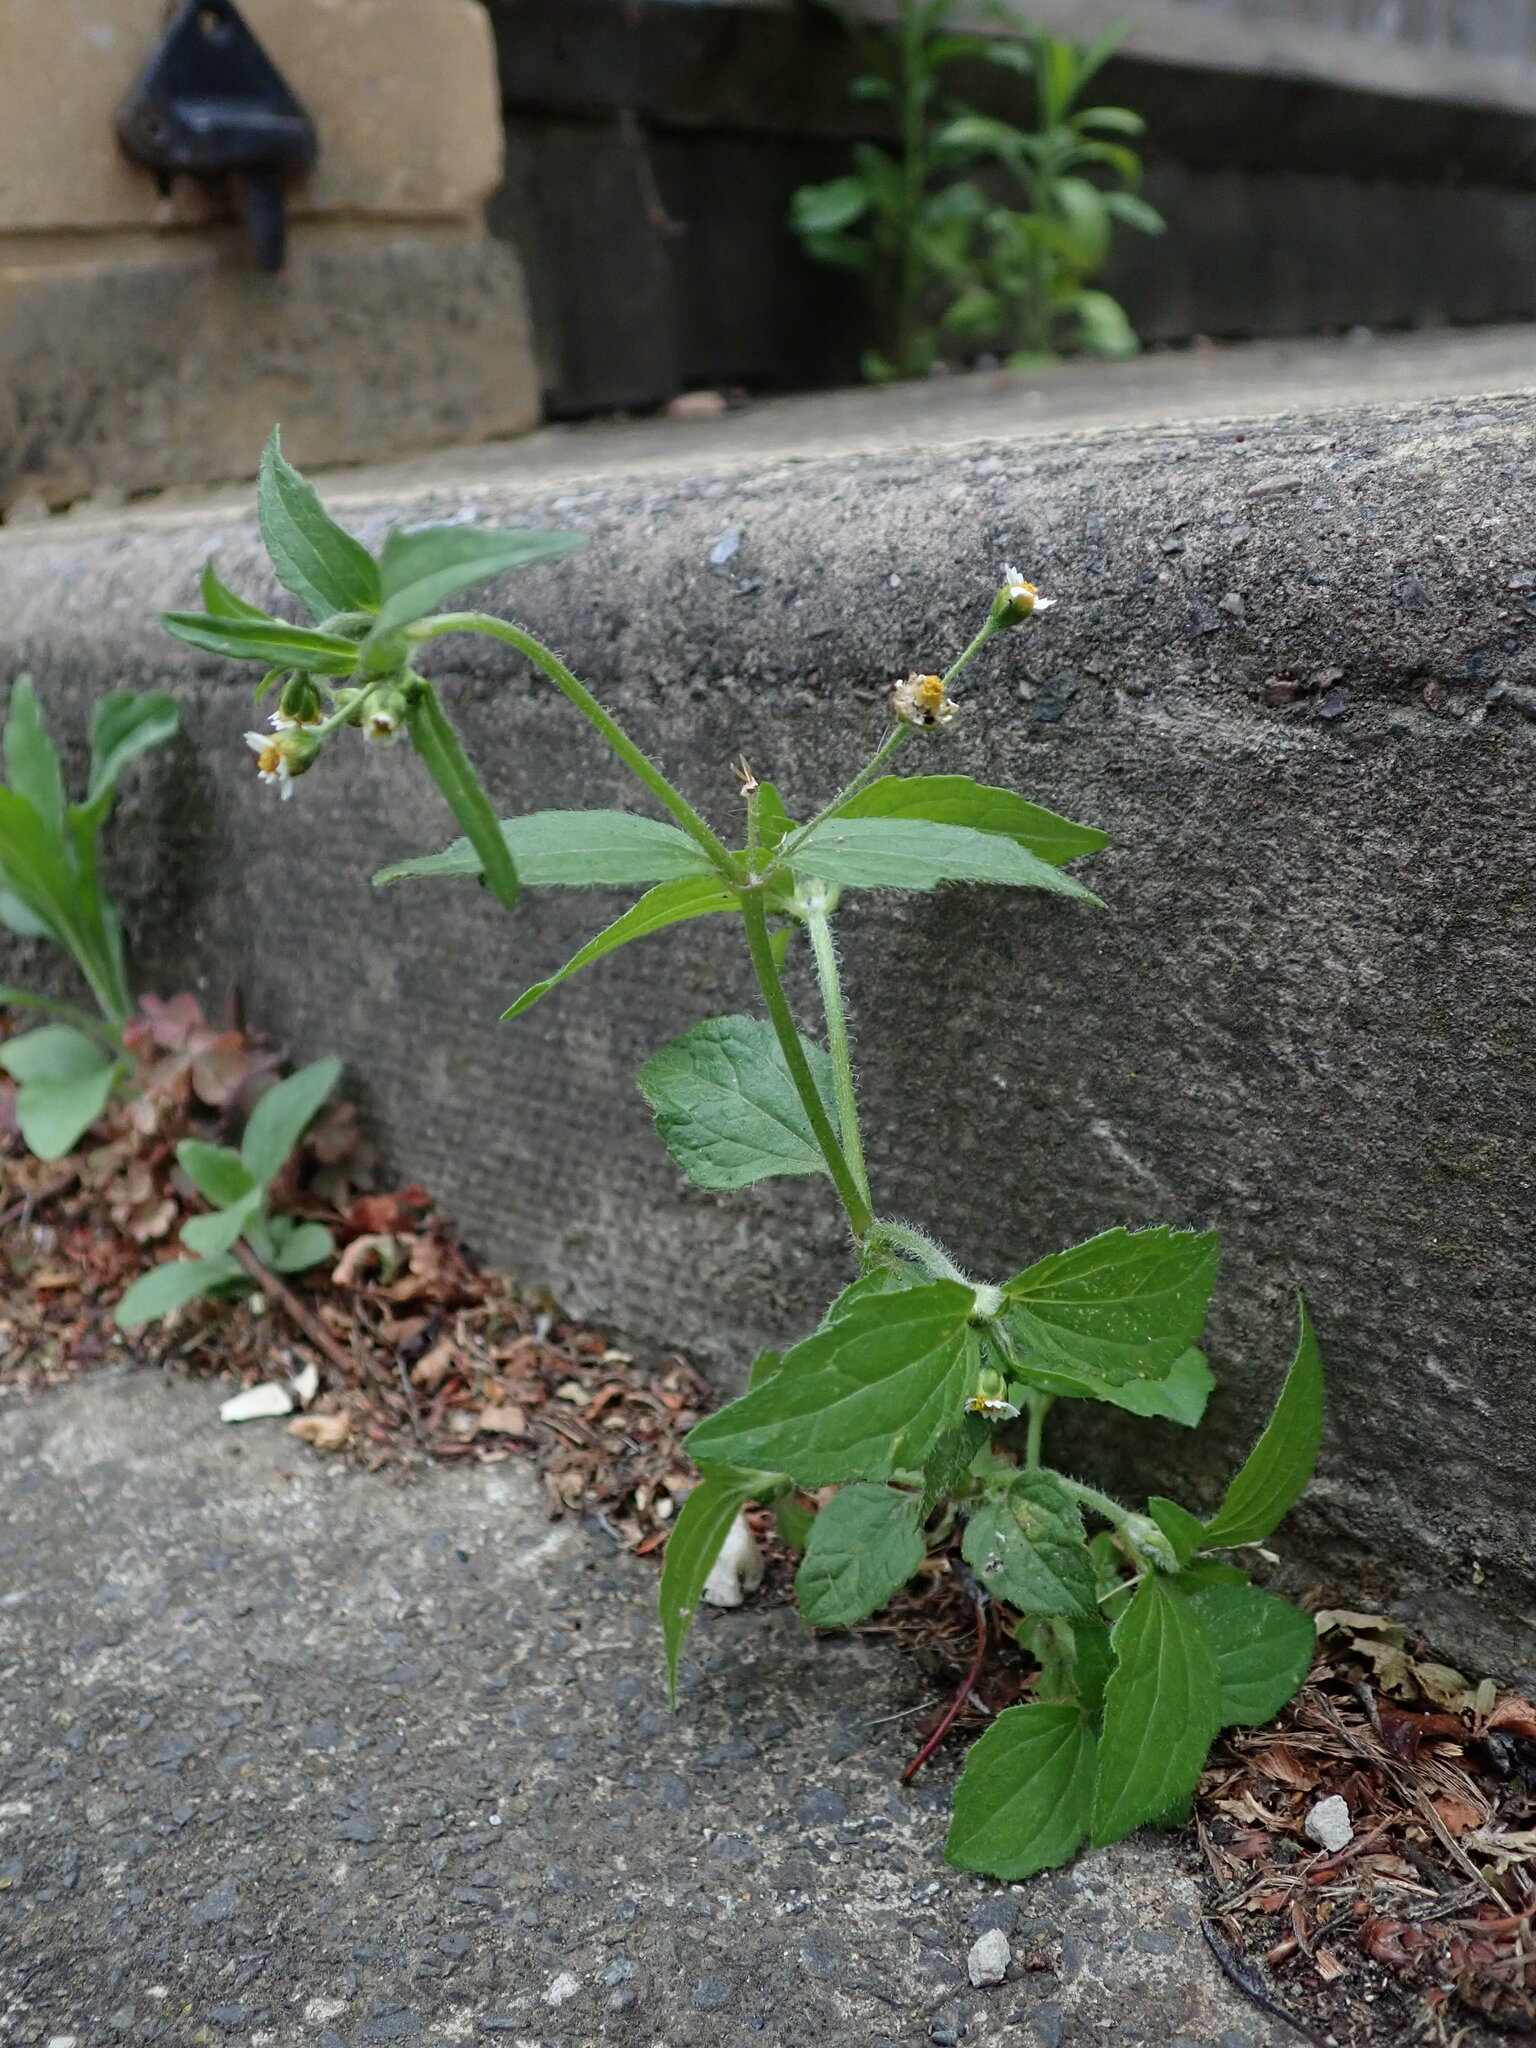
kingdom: Plantae
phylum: Tracheophyta
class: Magnoliopsida
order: Asterales
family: Asteraceae
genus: Galinsoga
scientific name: Galinsoga quadriradiata
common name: Shaggy soldier
